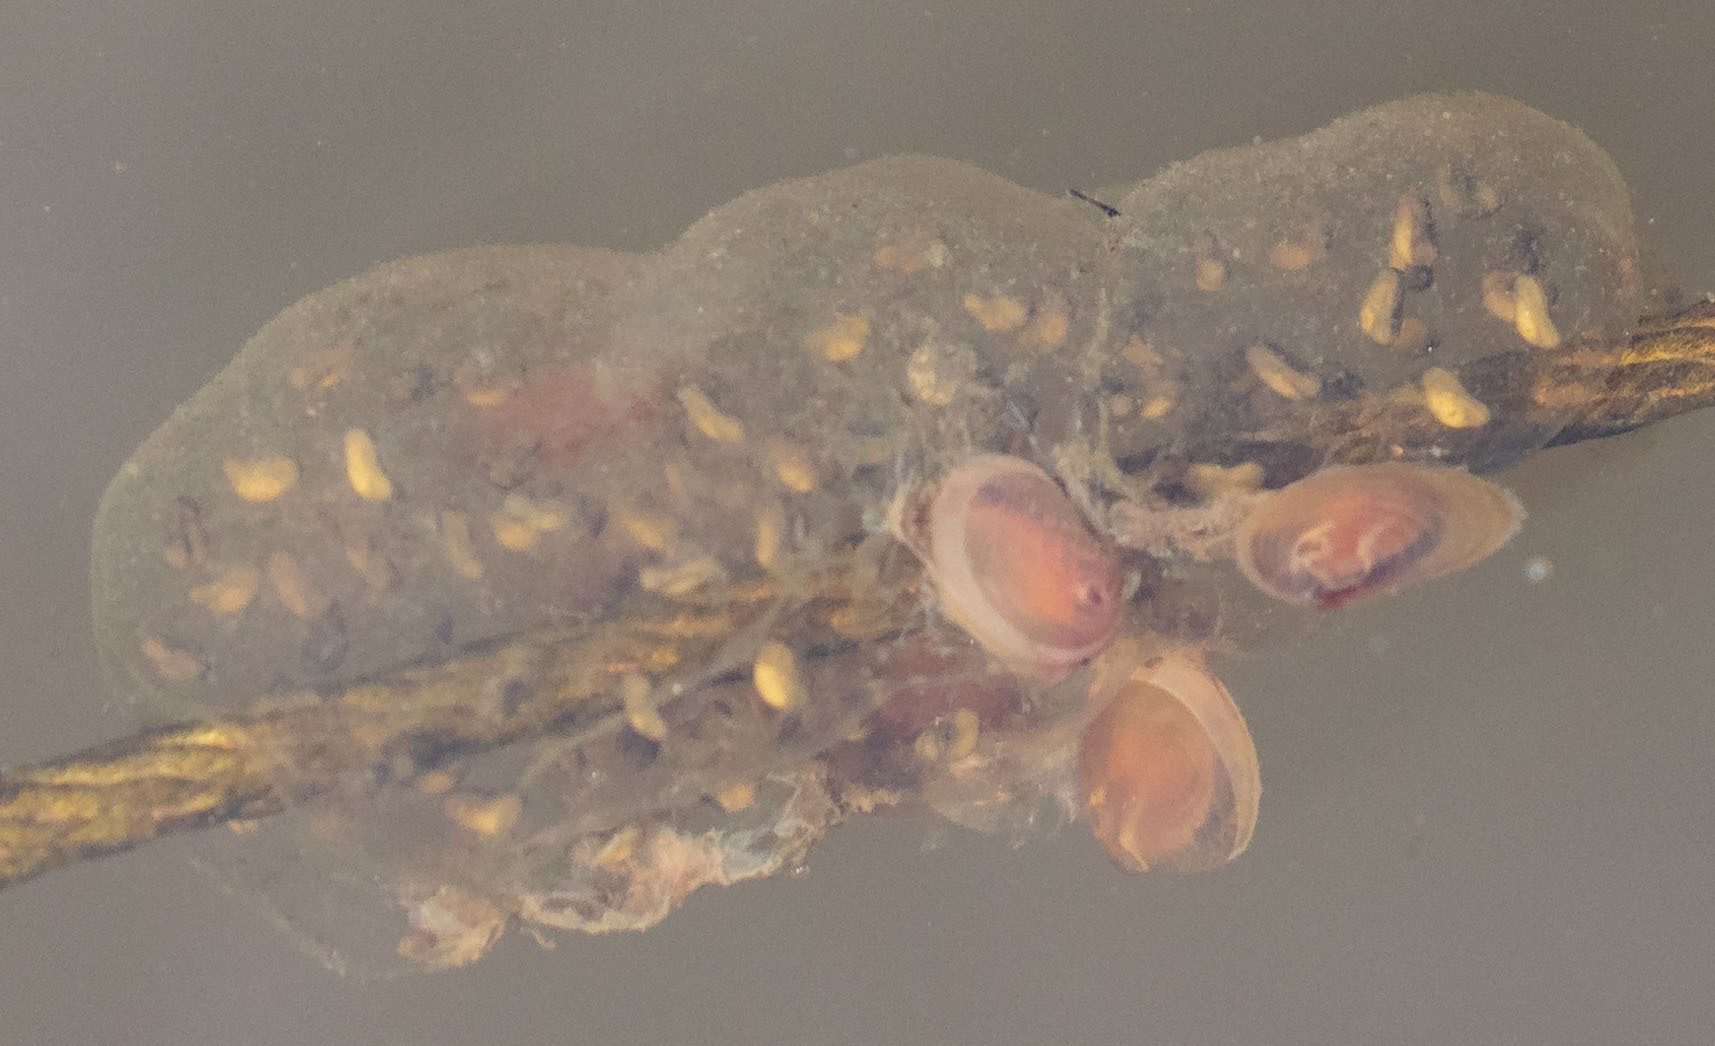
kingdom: Animalia
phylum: Chordata
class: Amphibia
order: Anura
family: Hylidae
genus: Pseudacris
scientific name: Pseudacris regilla
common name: Pacific chorus frog
